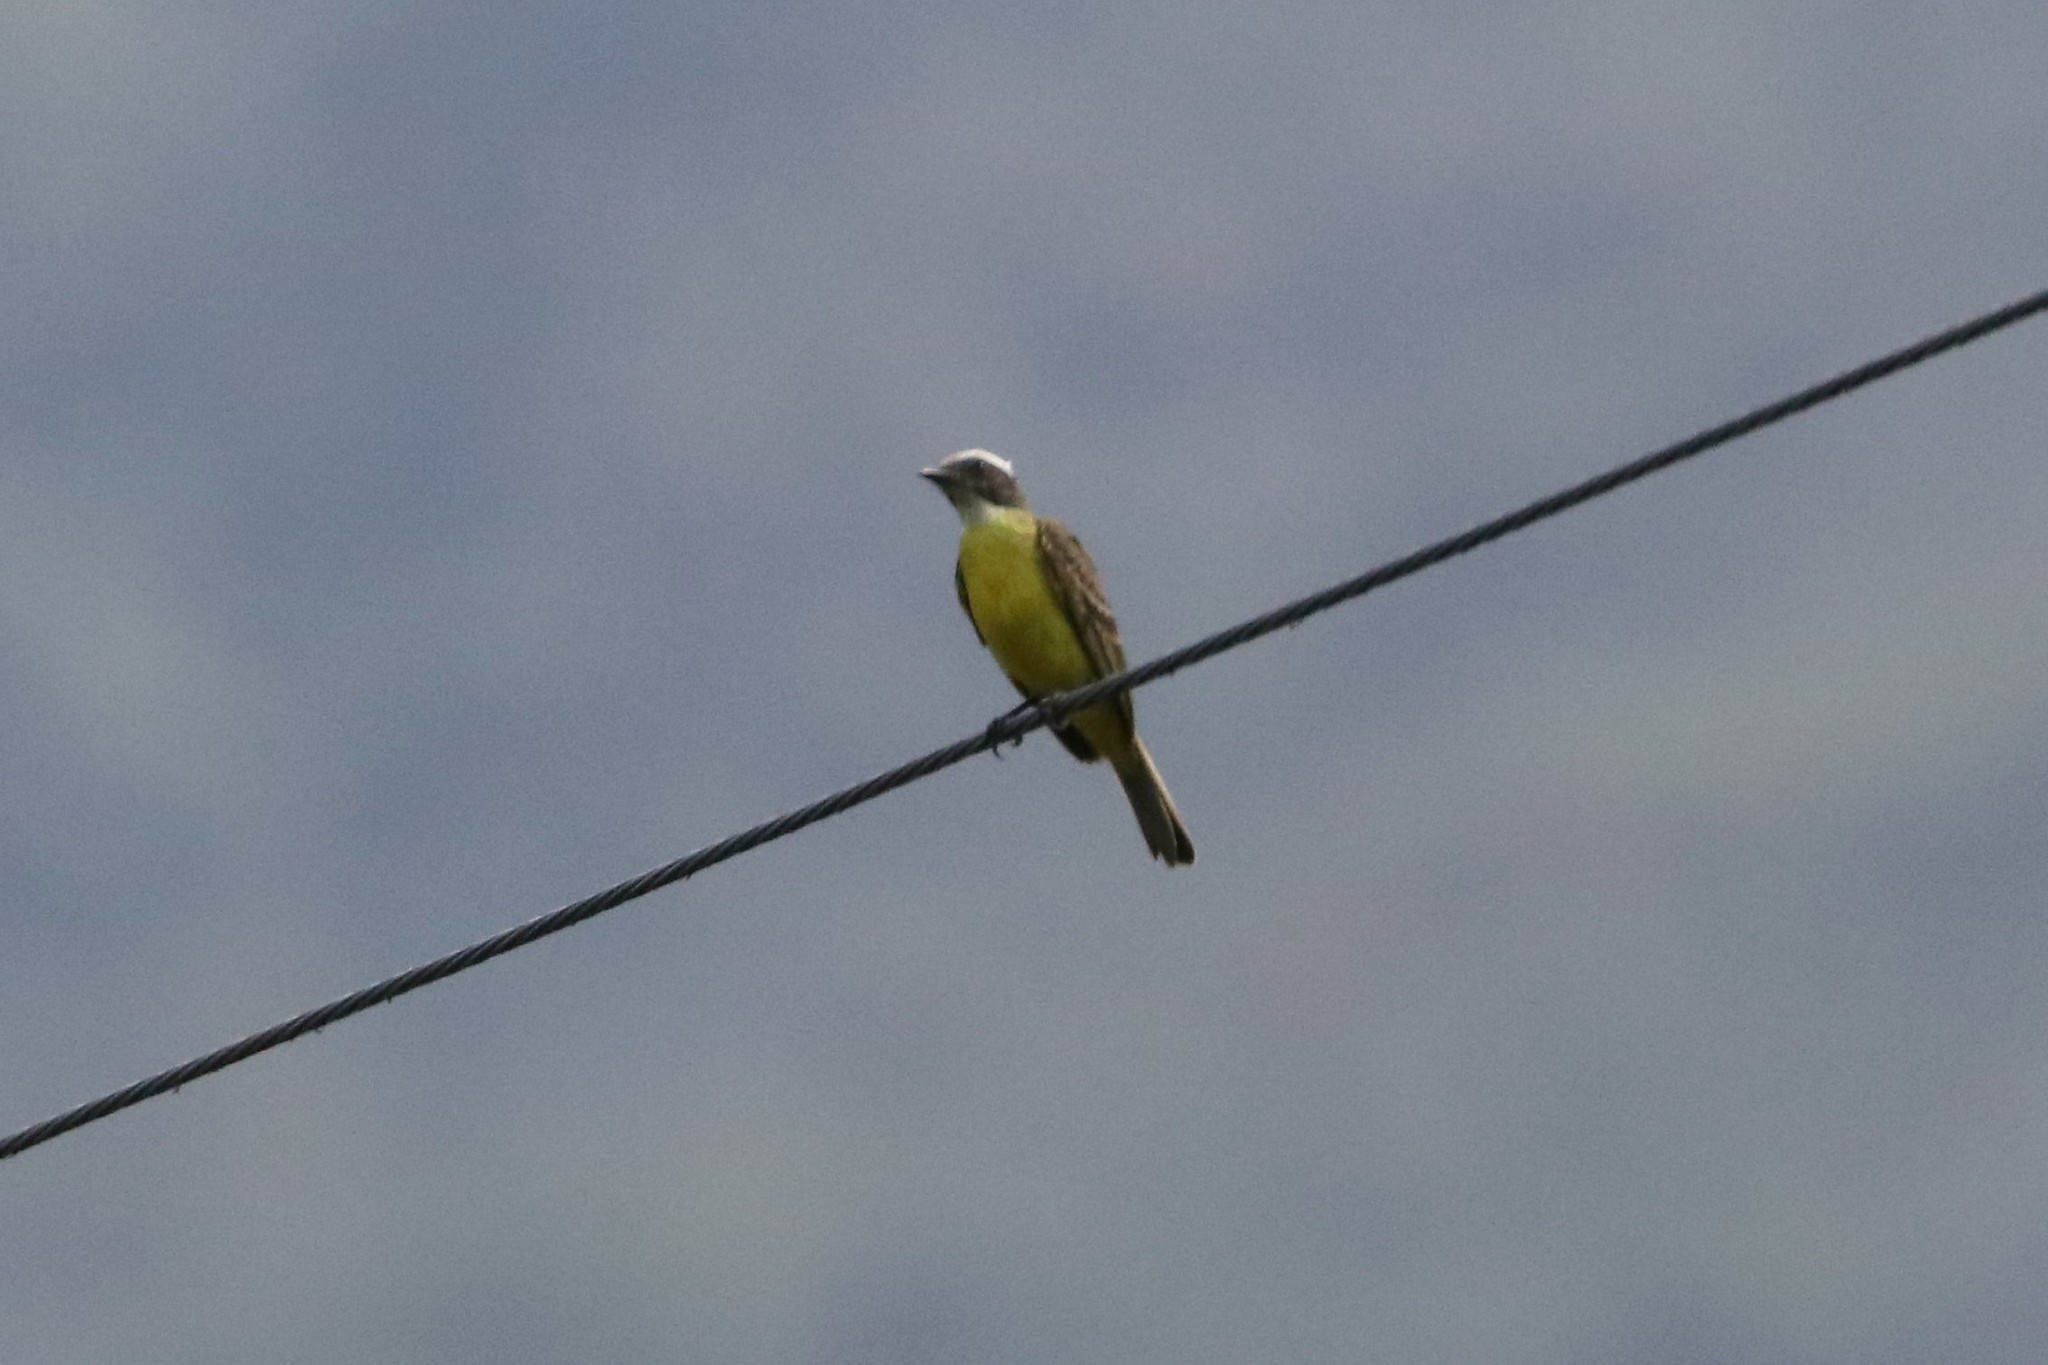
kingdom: Animalia
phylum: Chordata
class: Aves
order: Passeriformes
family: Tyrannidae
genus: Myiozetetes
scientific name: Myiozetetes similis
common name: Social flycatcher
